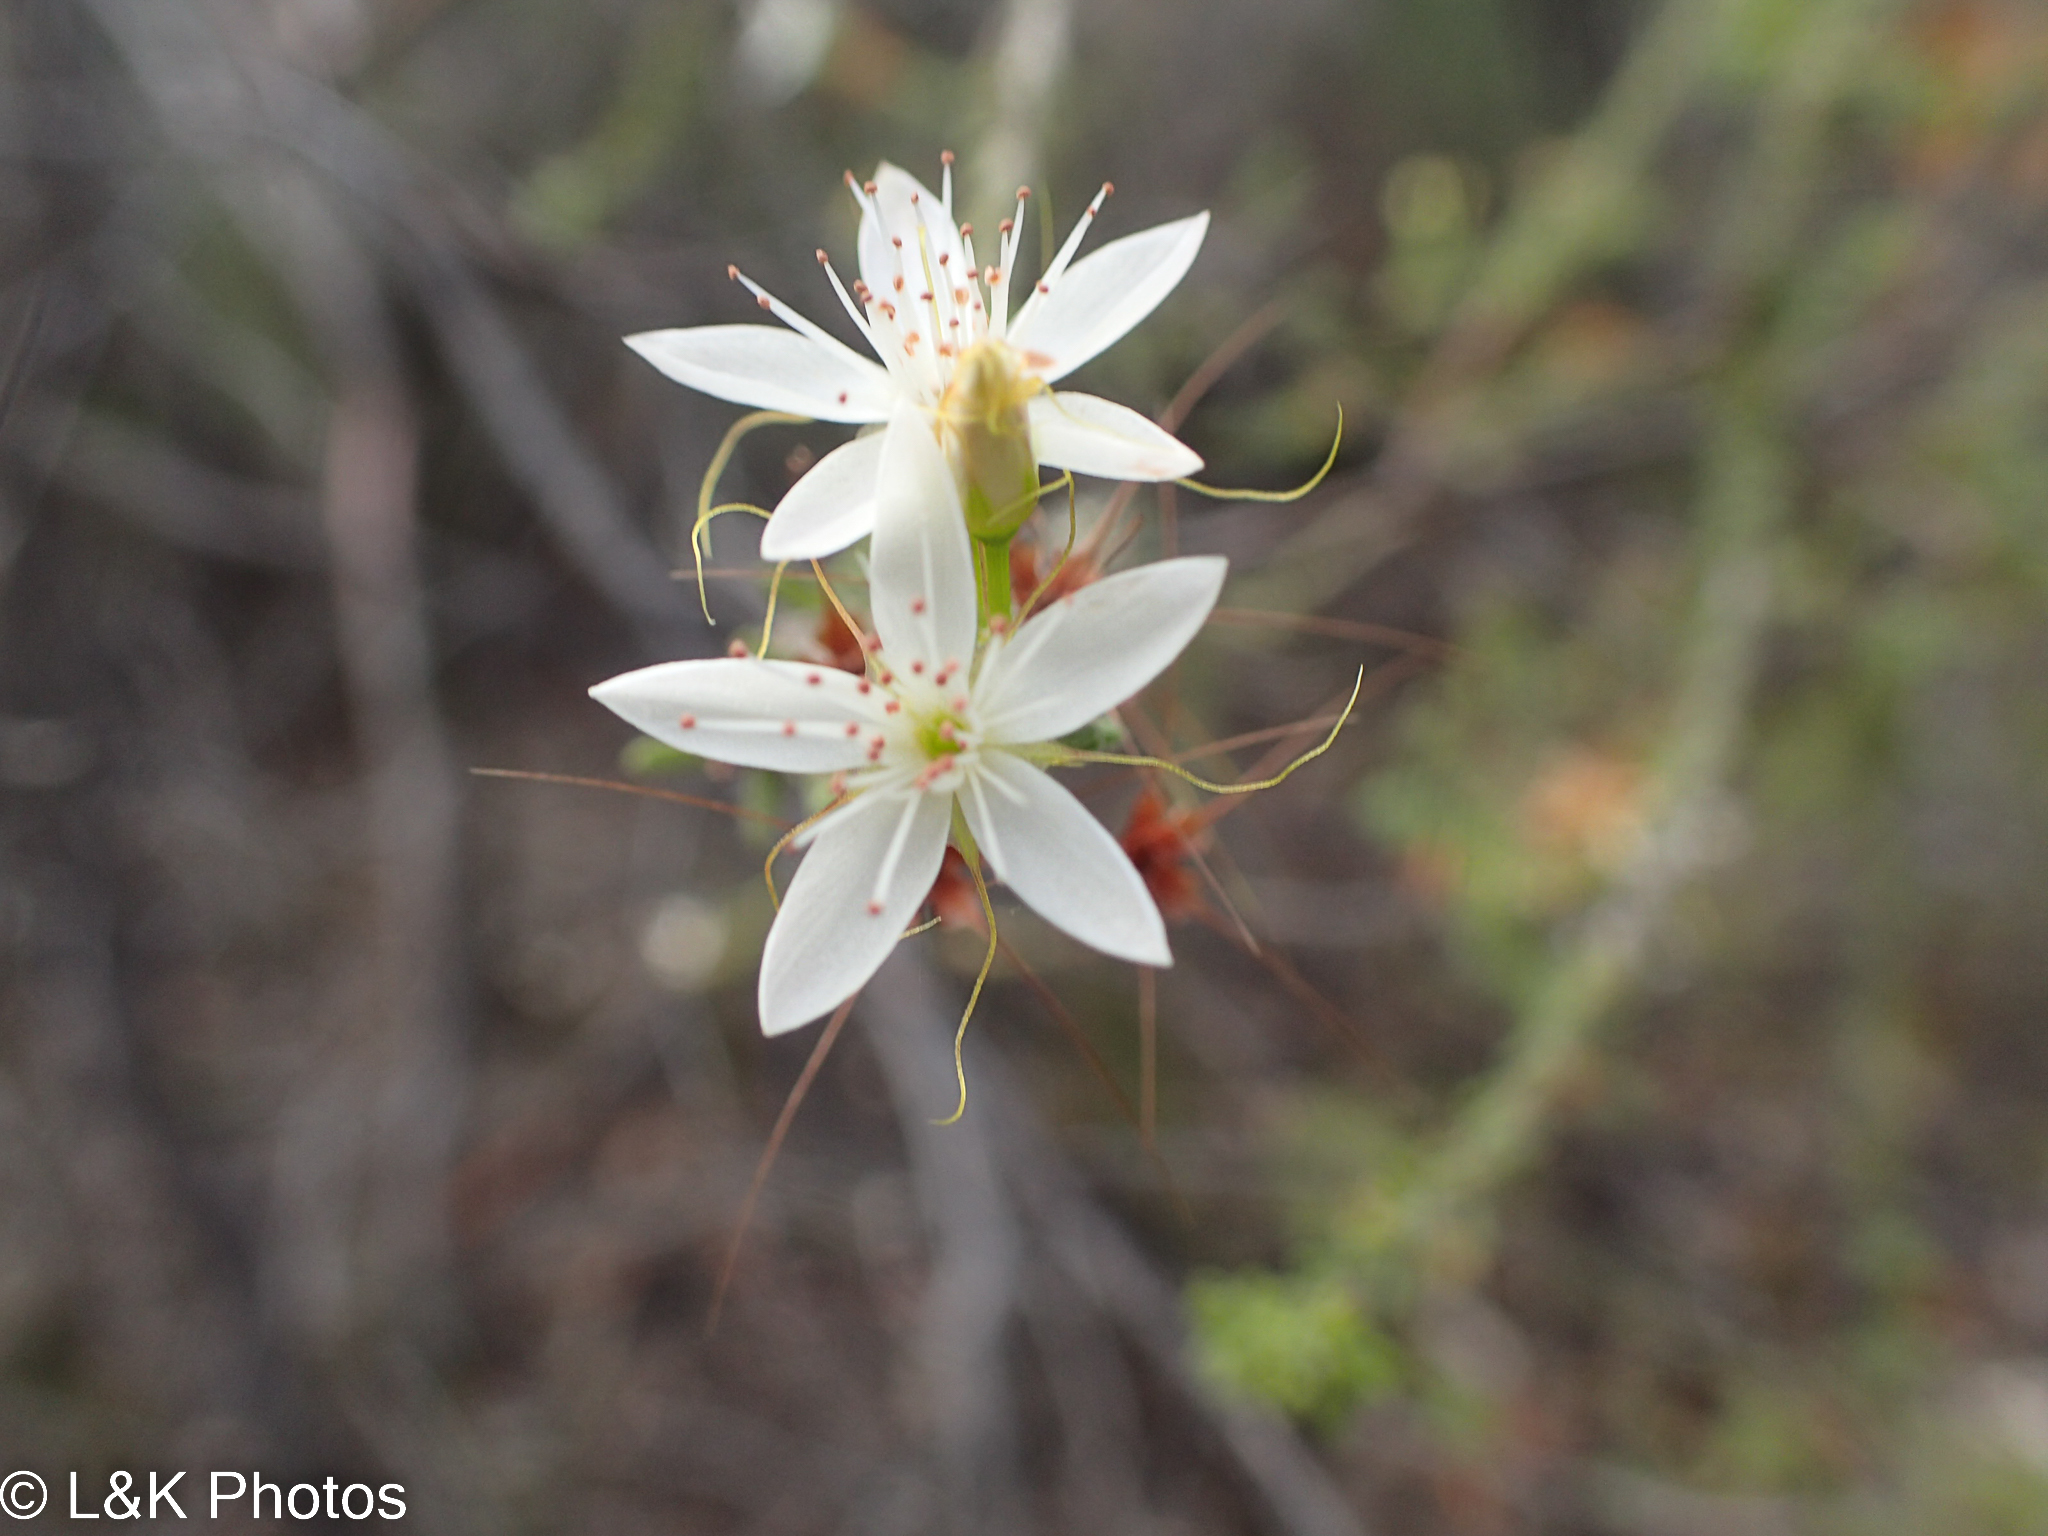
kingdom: Plantae
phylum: Tracheophyta
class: Magnoliopsida
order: Myrtales
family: Myrtaceae
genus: Calytrix
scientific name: Calytrix tetragona
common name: Common fringe myrtle
